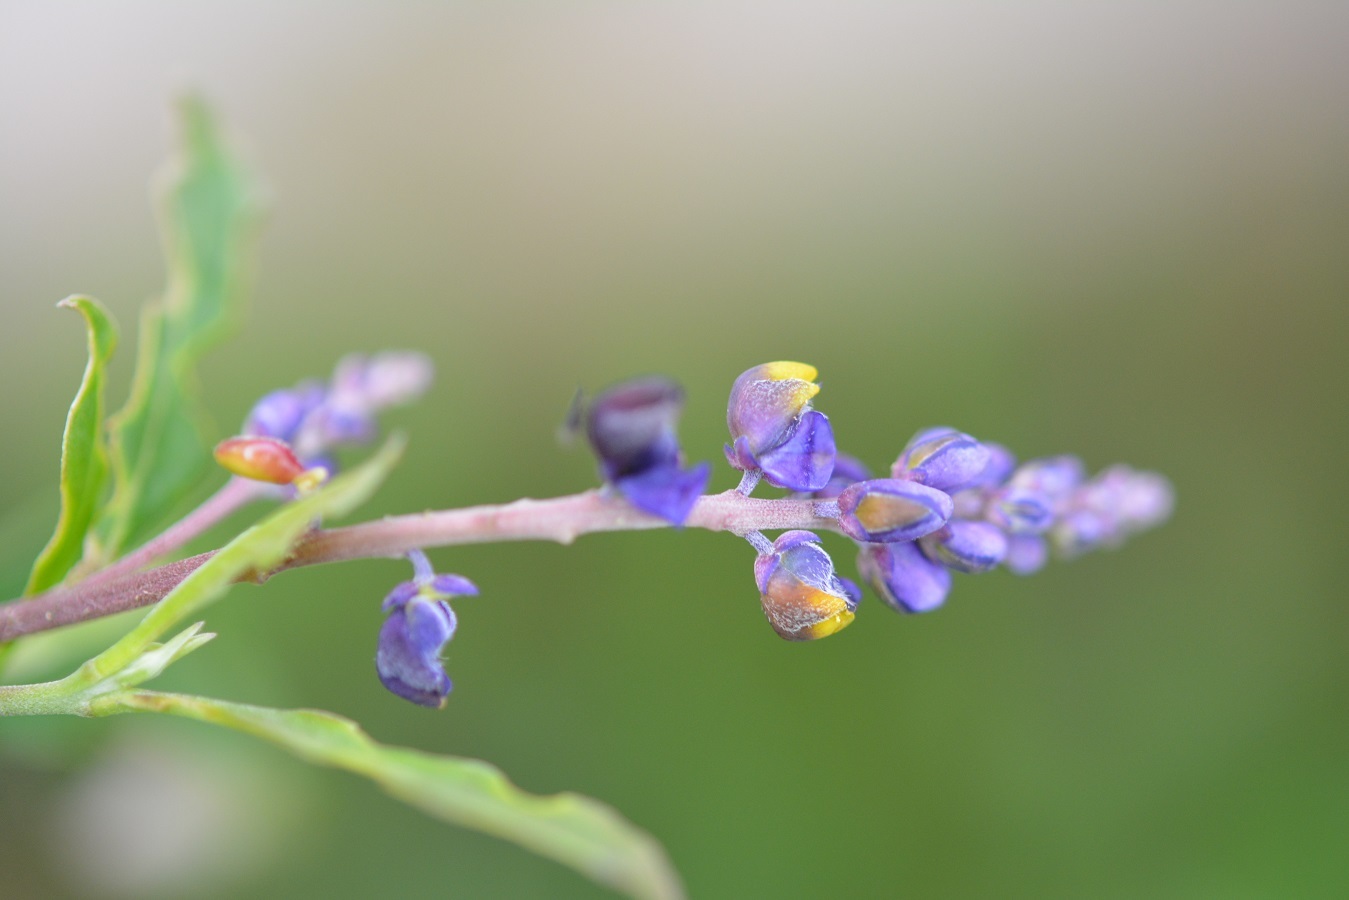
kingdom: Plantae
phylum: Tracheophyta
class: Magnoliopsida
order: Fabales
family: Polygalaceae
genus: Monnina
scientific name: Monnina xalapensis
